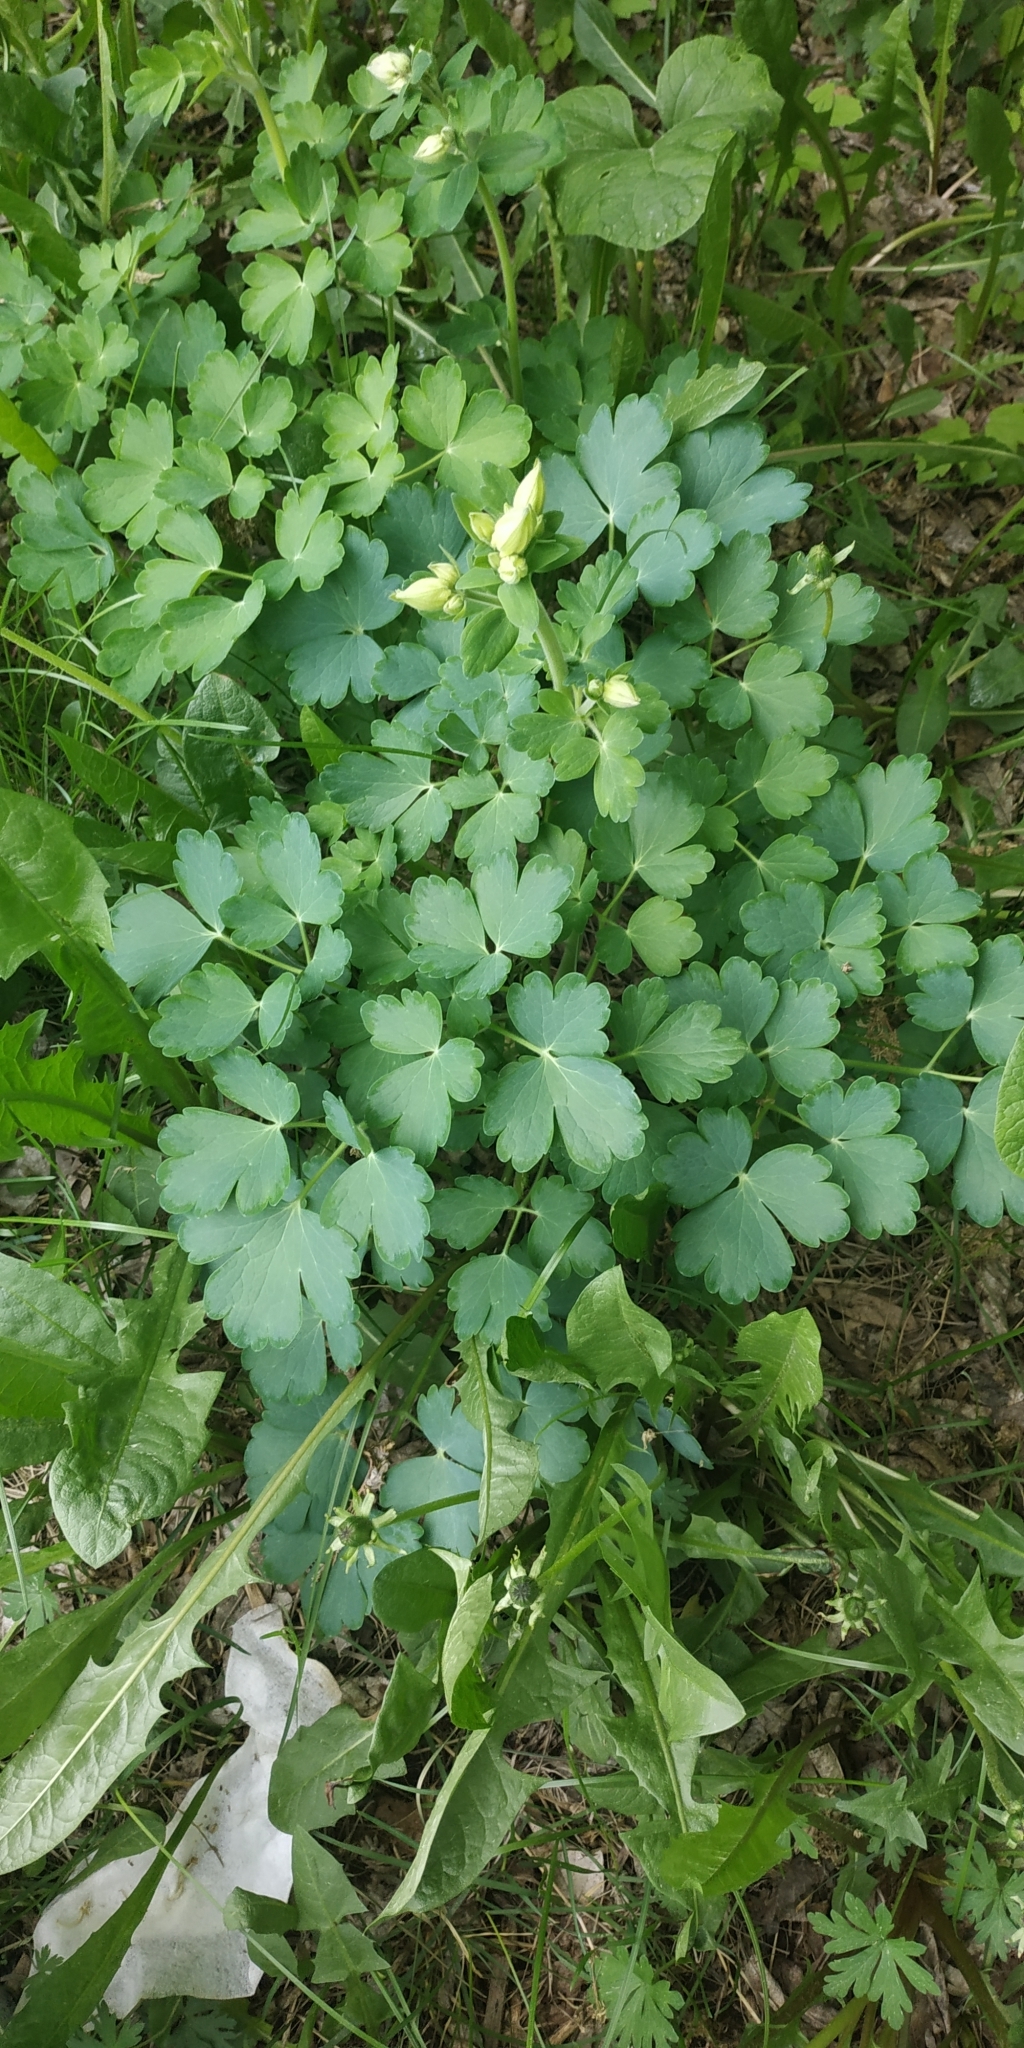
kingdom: Plantae
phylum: Tracheophyta
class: Magnoliopsida
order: Ranunculales
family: Ranunculaceae
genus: Aquilegia
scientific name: Aquilegia vulgaris
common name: Columbine
